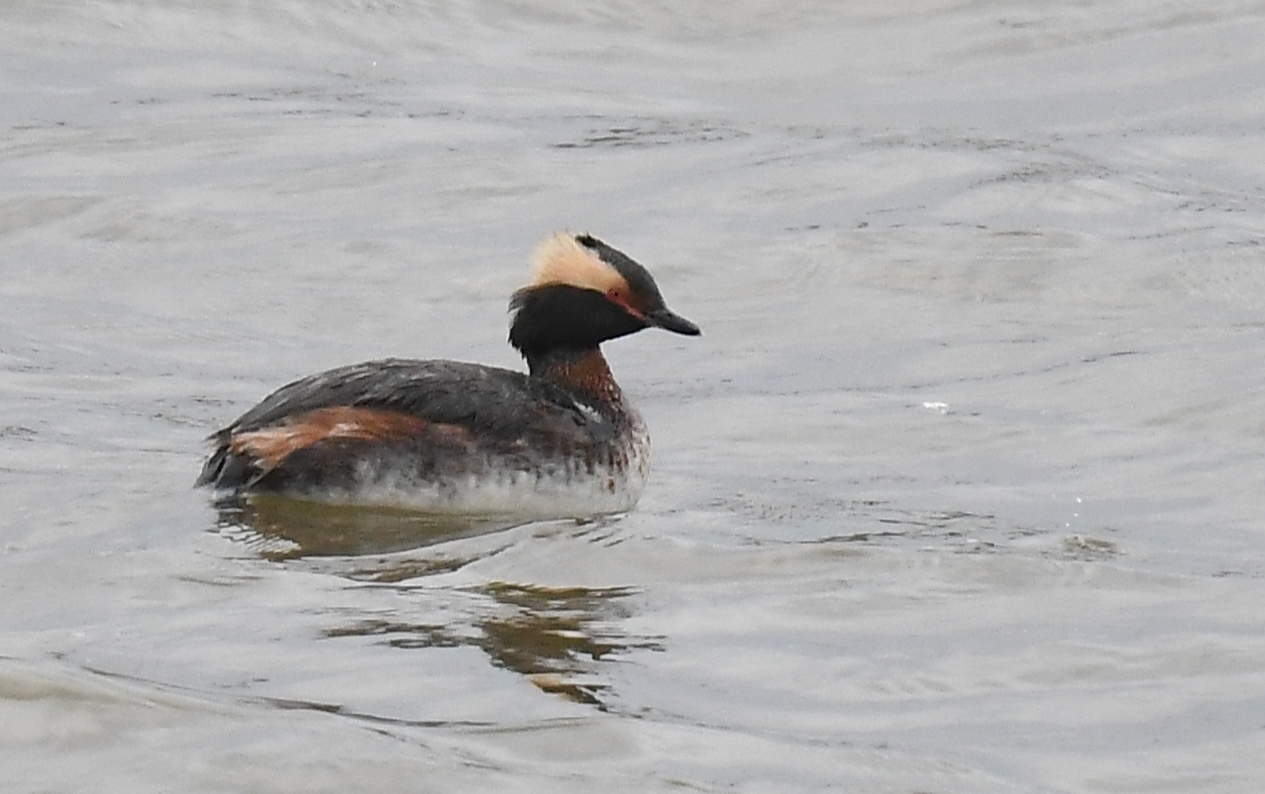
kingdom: Animalia
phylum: Chordata
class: Aves
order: Podicipediformes
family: Podicipedidae
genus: Podiceps
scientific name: Podiceps auritus
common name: Horned grebe
